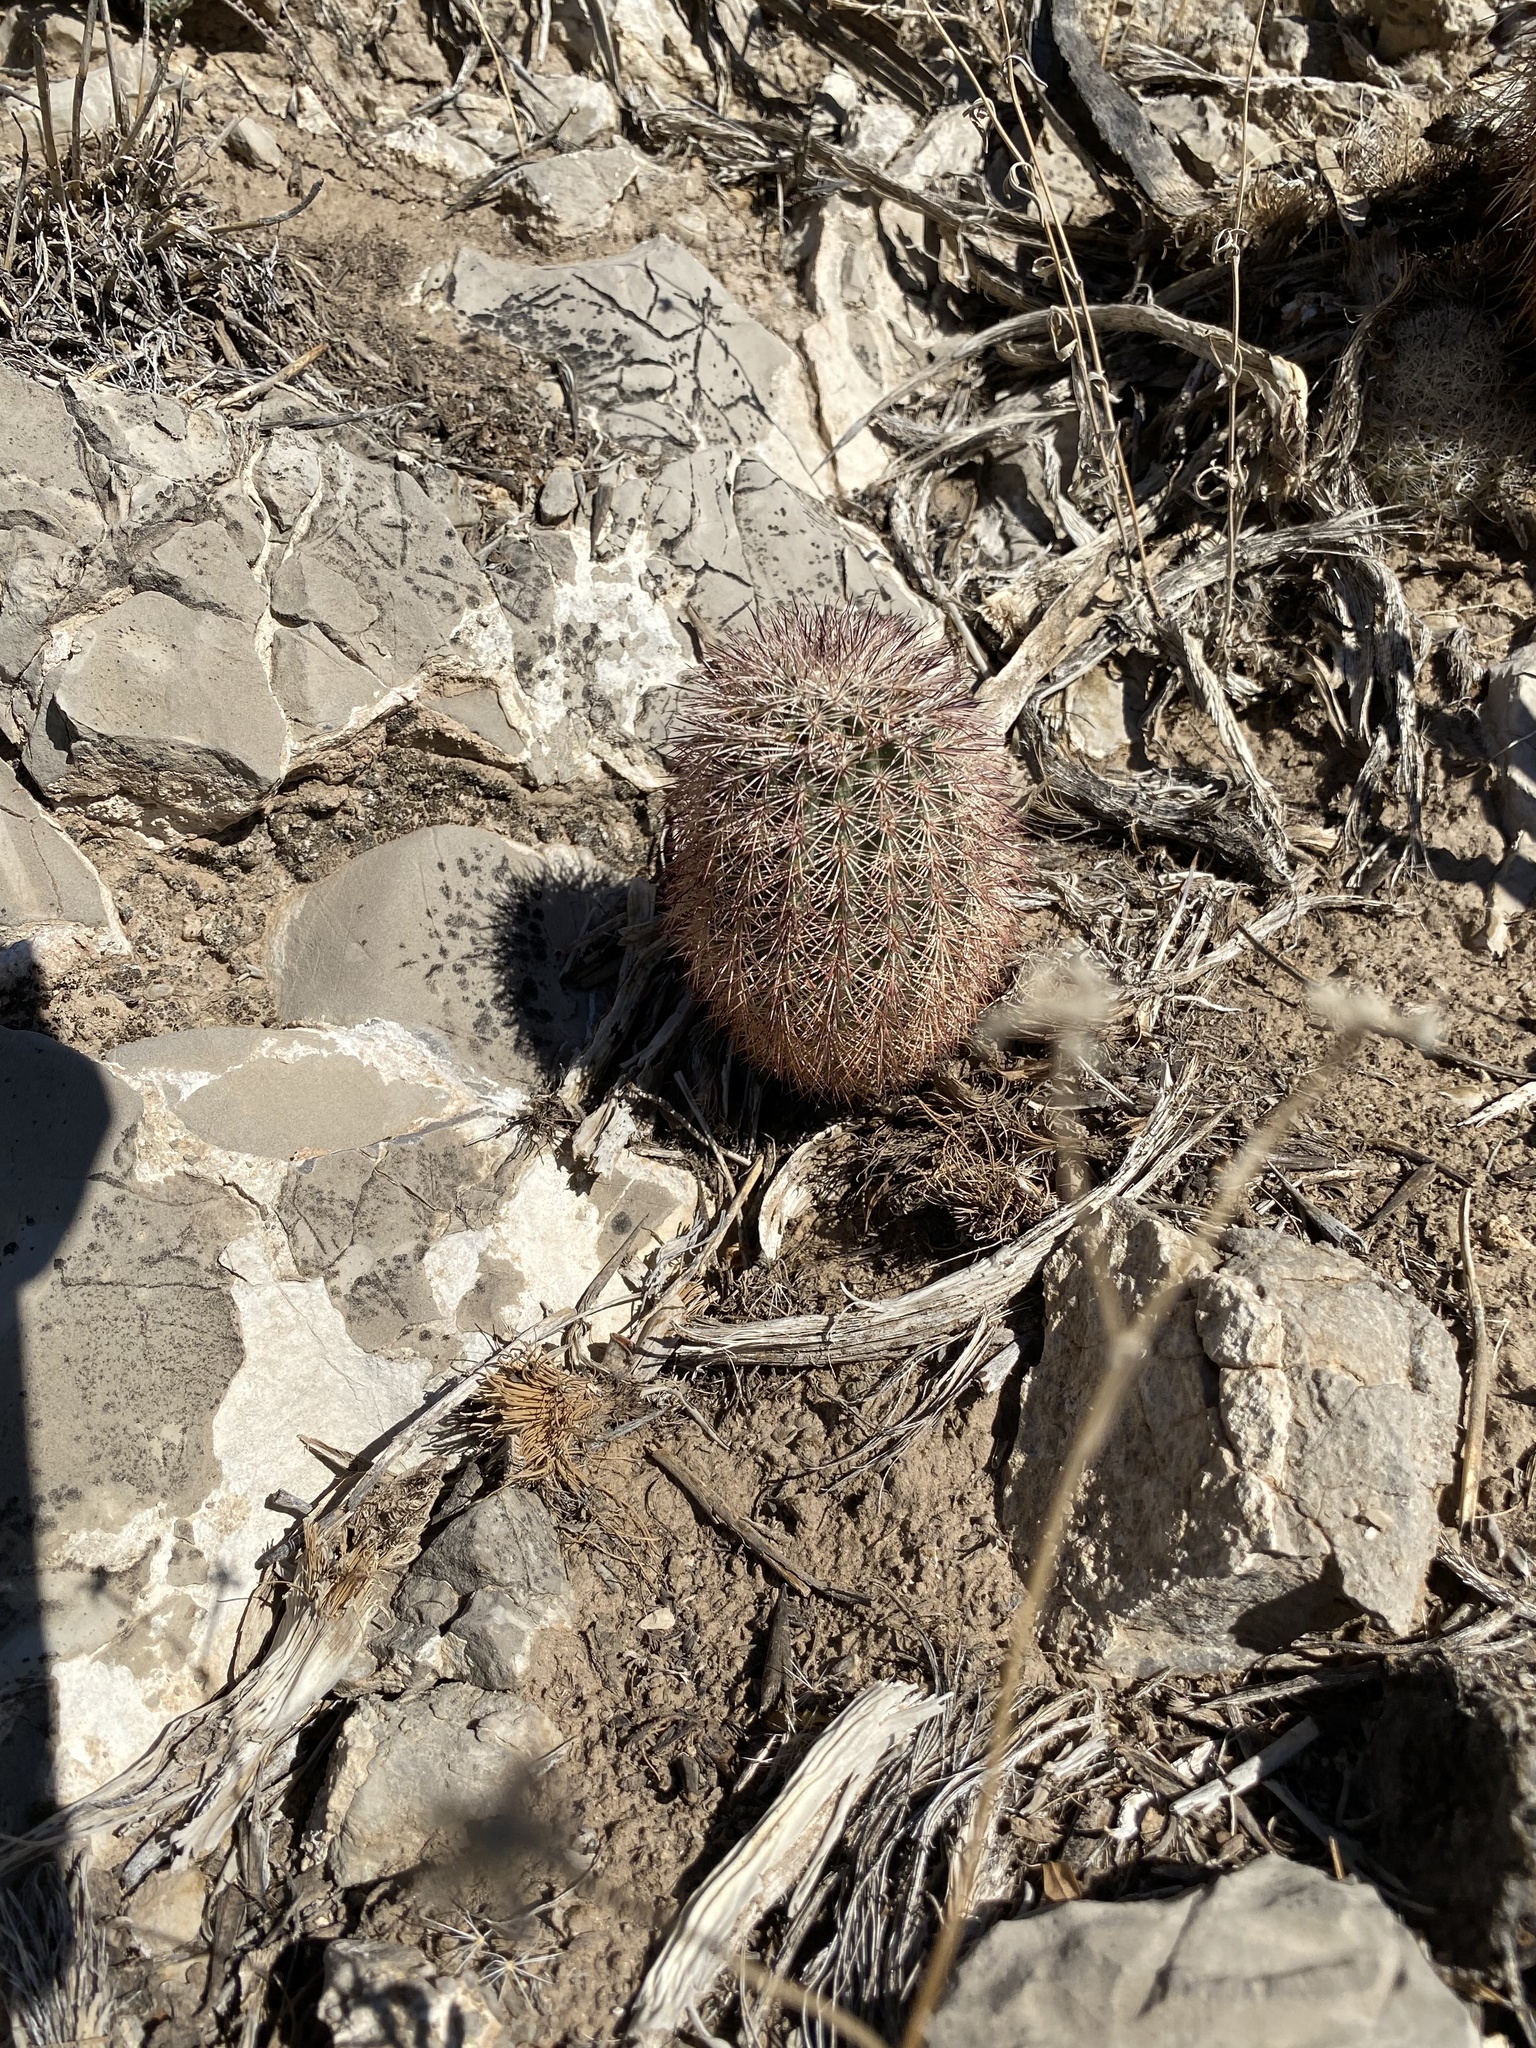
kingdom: Plantae
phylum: Tracheophyta
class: Magnoliopsida
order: Caryophyllales
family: Cactaceae
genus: Echinocereus
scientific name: Echinocereus dasyacanthus
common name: Spiny hedgehog cactus
